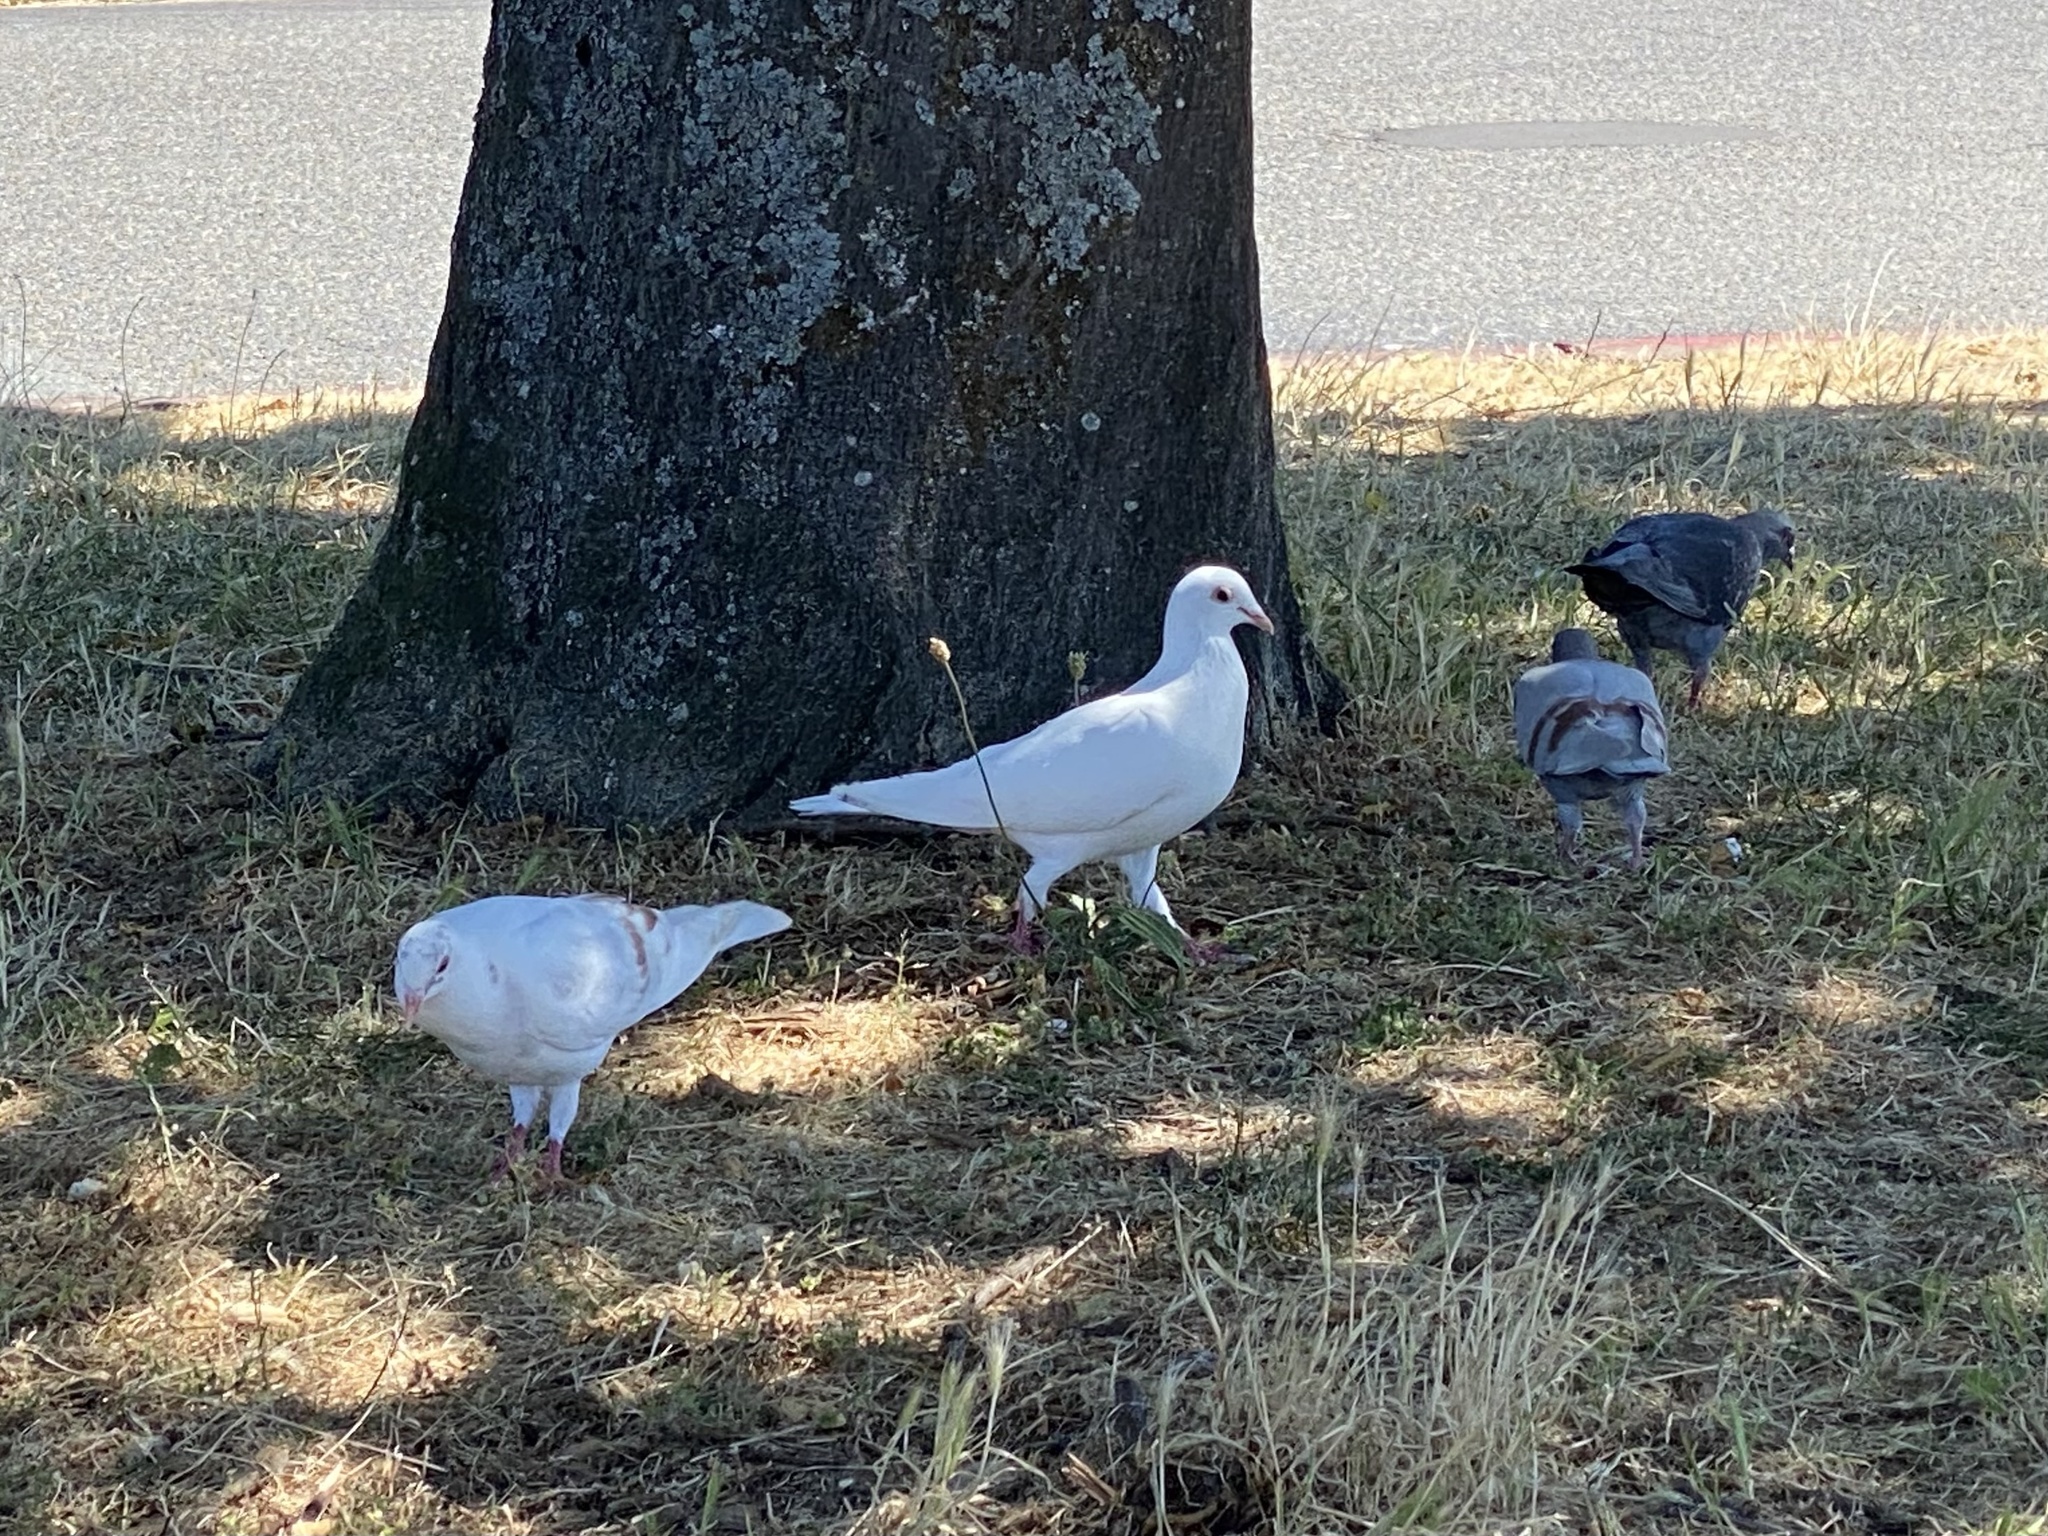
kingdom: Animalia
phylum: Chordata
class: Aves
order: Columbiformes
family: Columbidae
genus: Columba
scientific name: Columba livia
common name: Rock pigeon
